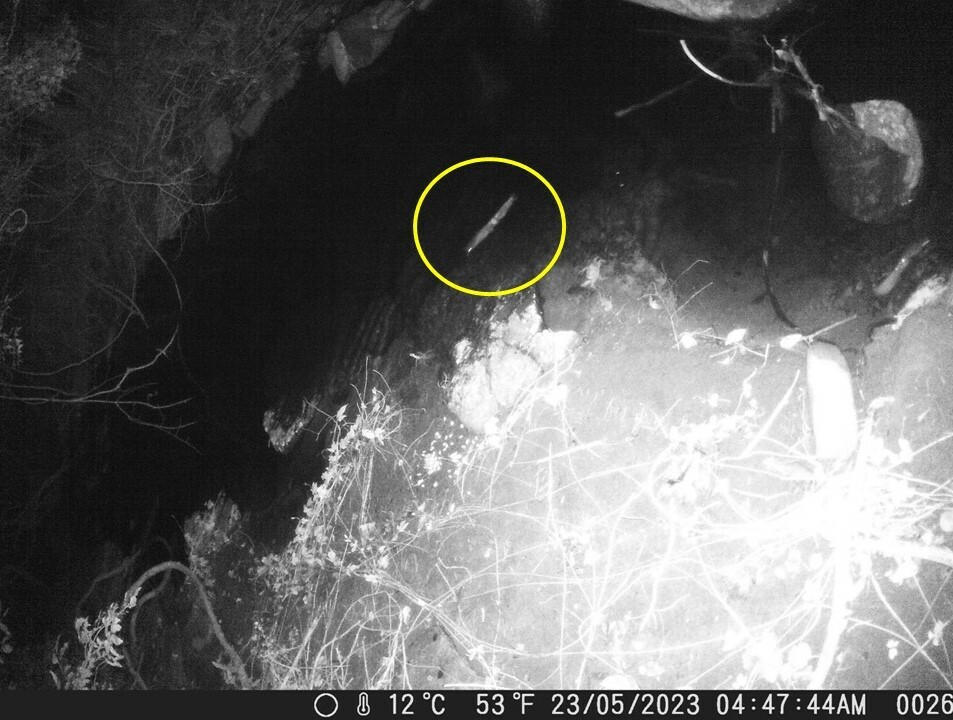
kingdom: Animalia
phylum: Chordata
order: Siluriformes
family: Clariidae
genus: Clarias
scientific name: Clarias gariepinus
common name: African catfish
